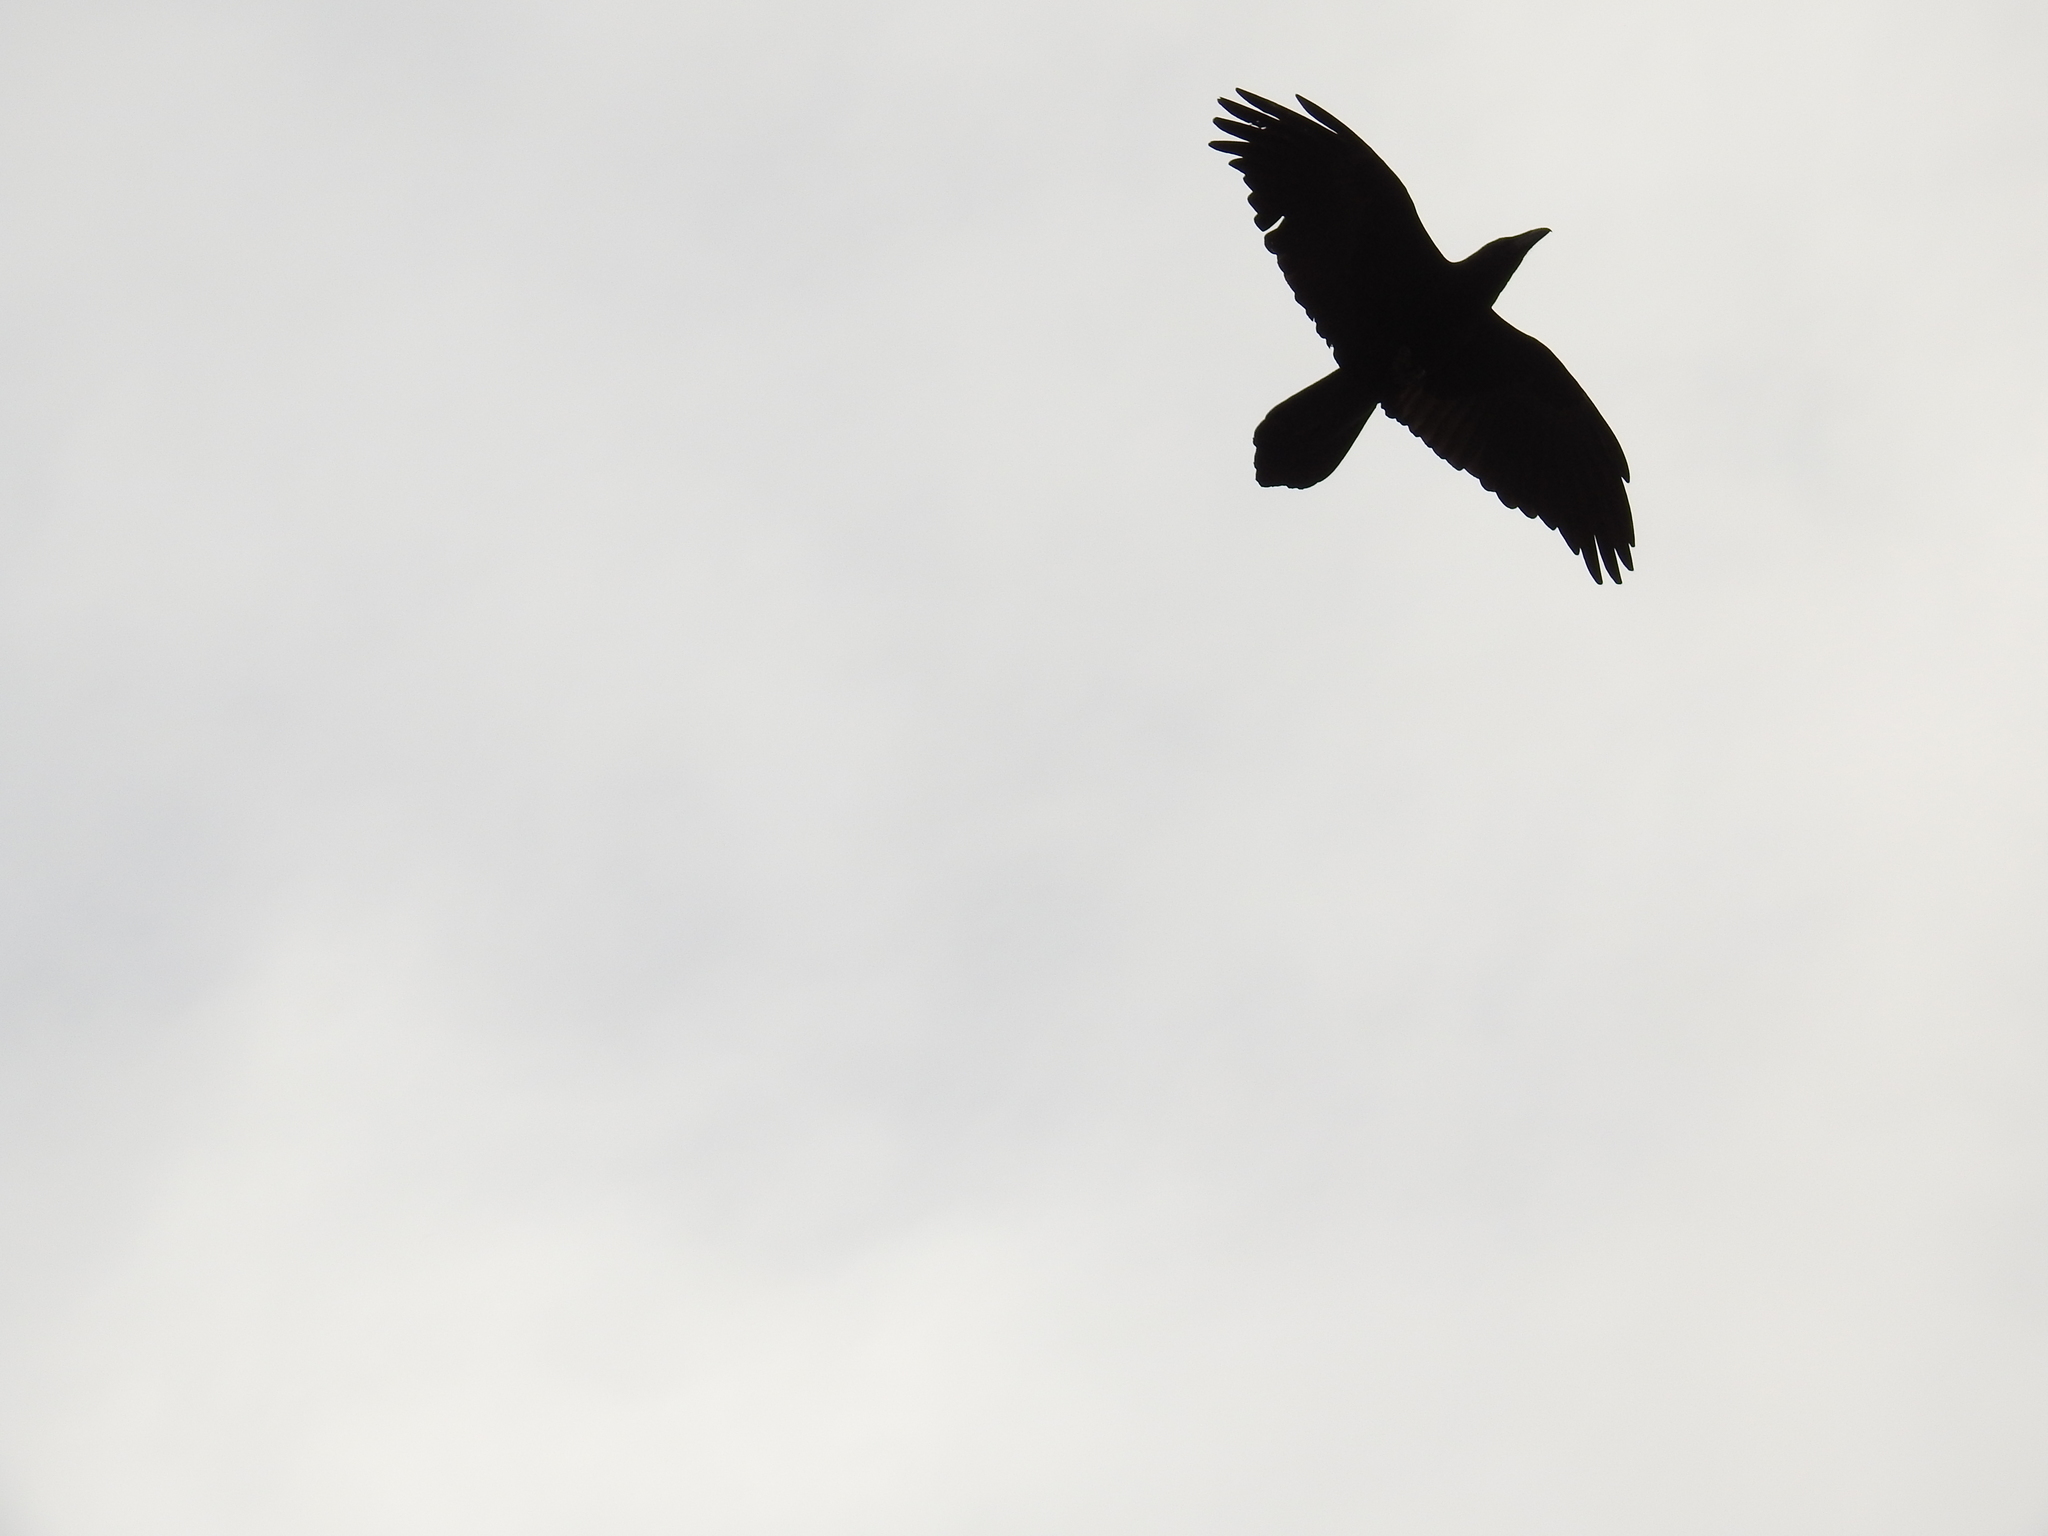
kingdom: Animalia
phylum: Chordata
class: Aves
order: Passeriformes
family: Corvidae
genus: Corvus
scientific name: Corvus corax
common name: Common raven
